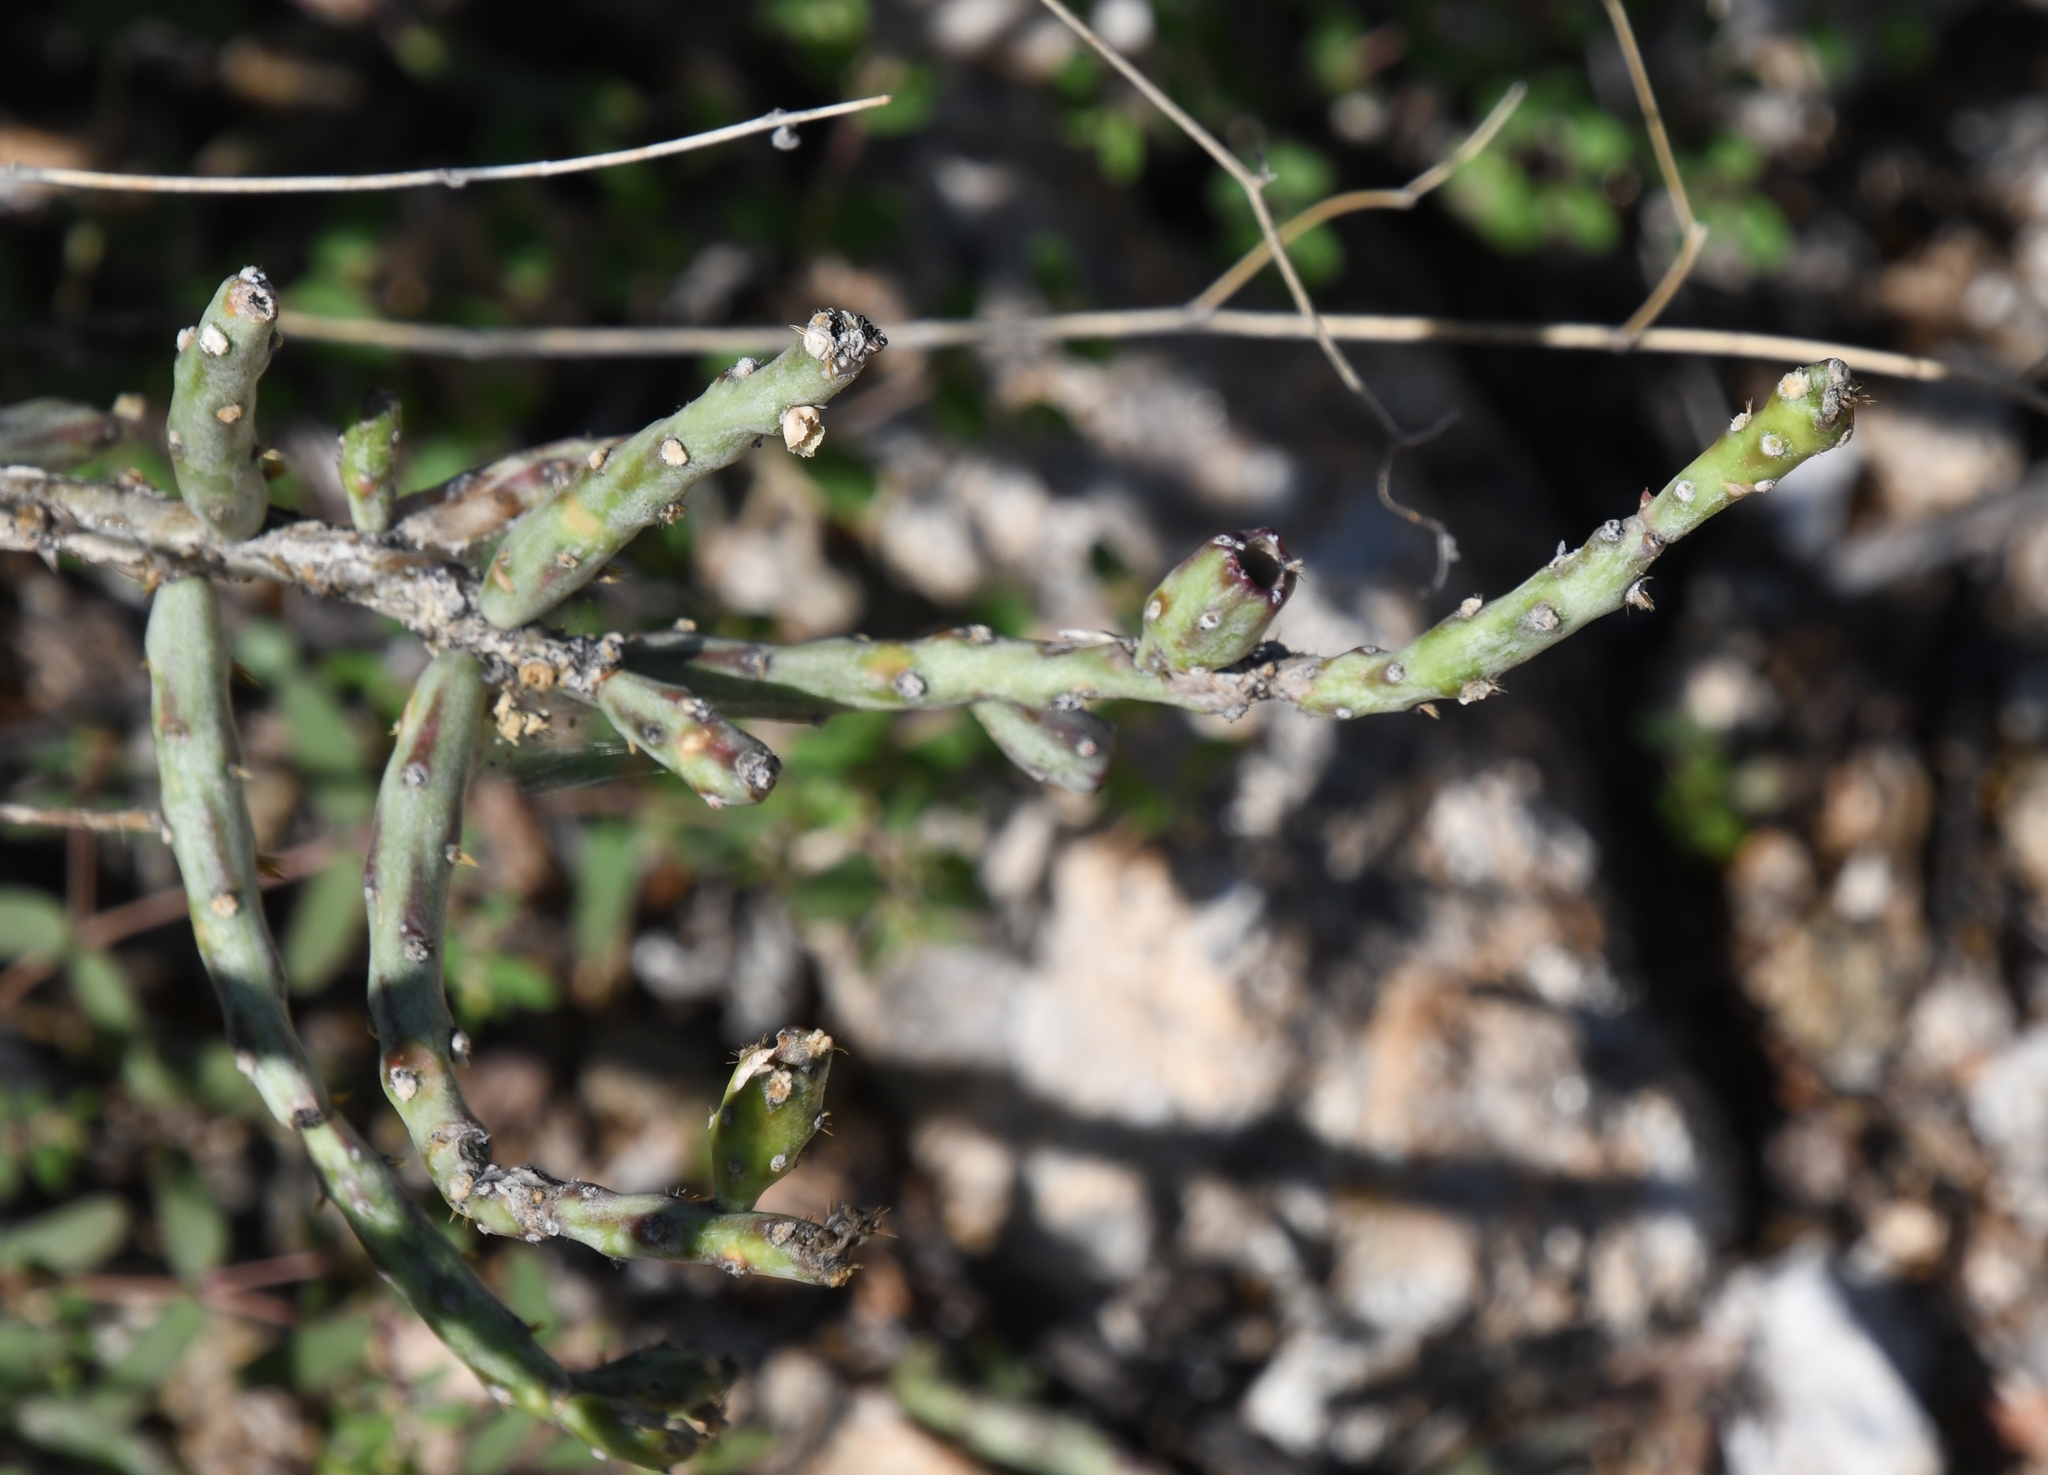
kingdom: Plantae
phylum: Tracheophyta
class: Magnoliopsida
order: Caryophyllales
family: Cactaceae
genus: Cylindropuntia
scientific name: Cylindropuntia leptocaulis
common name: Christmas cactus
